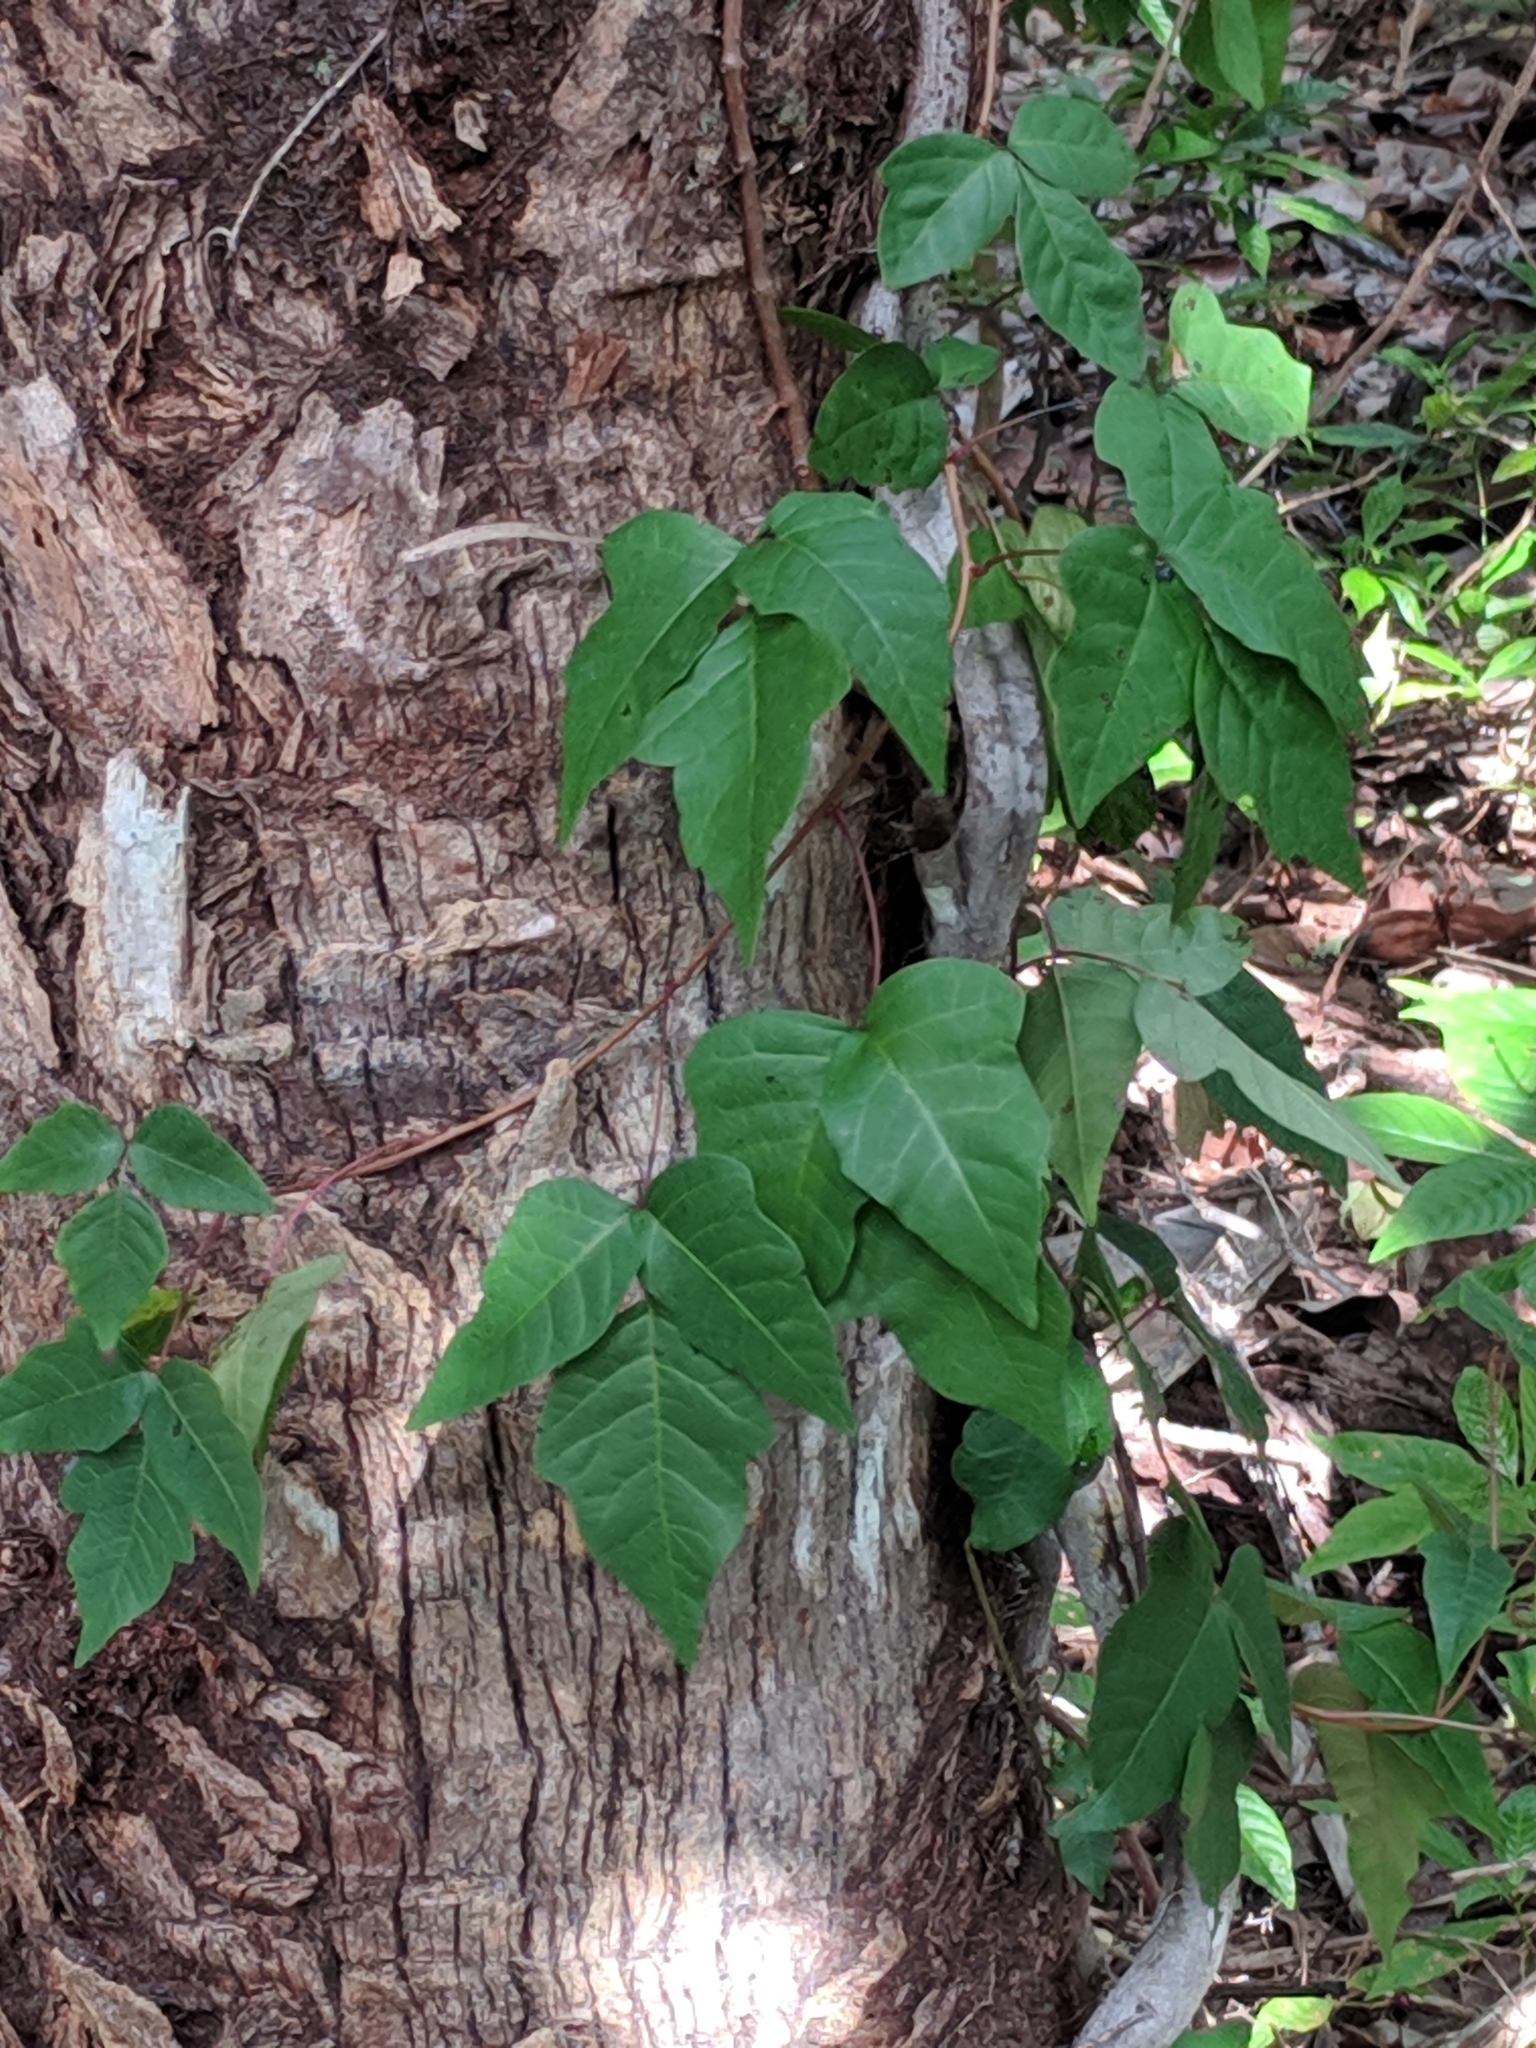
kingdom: Plantae
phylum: Tracheophyta
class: Magnoliopsida
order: Sapindales
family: Anacardiaceae
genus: Toxicodendron
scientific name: Toxicodendron radicans
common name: Poison ivy
